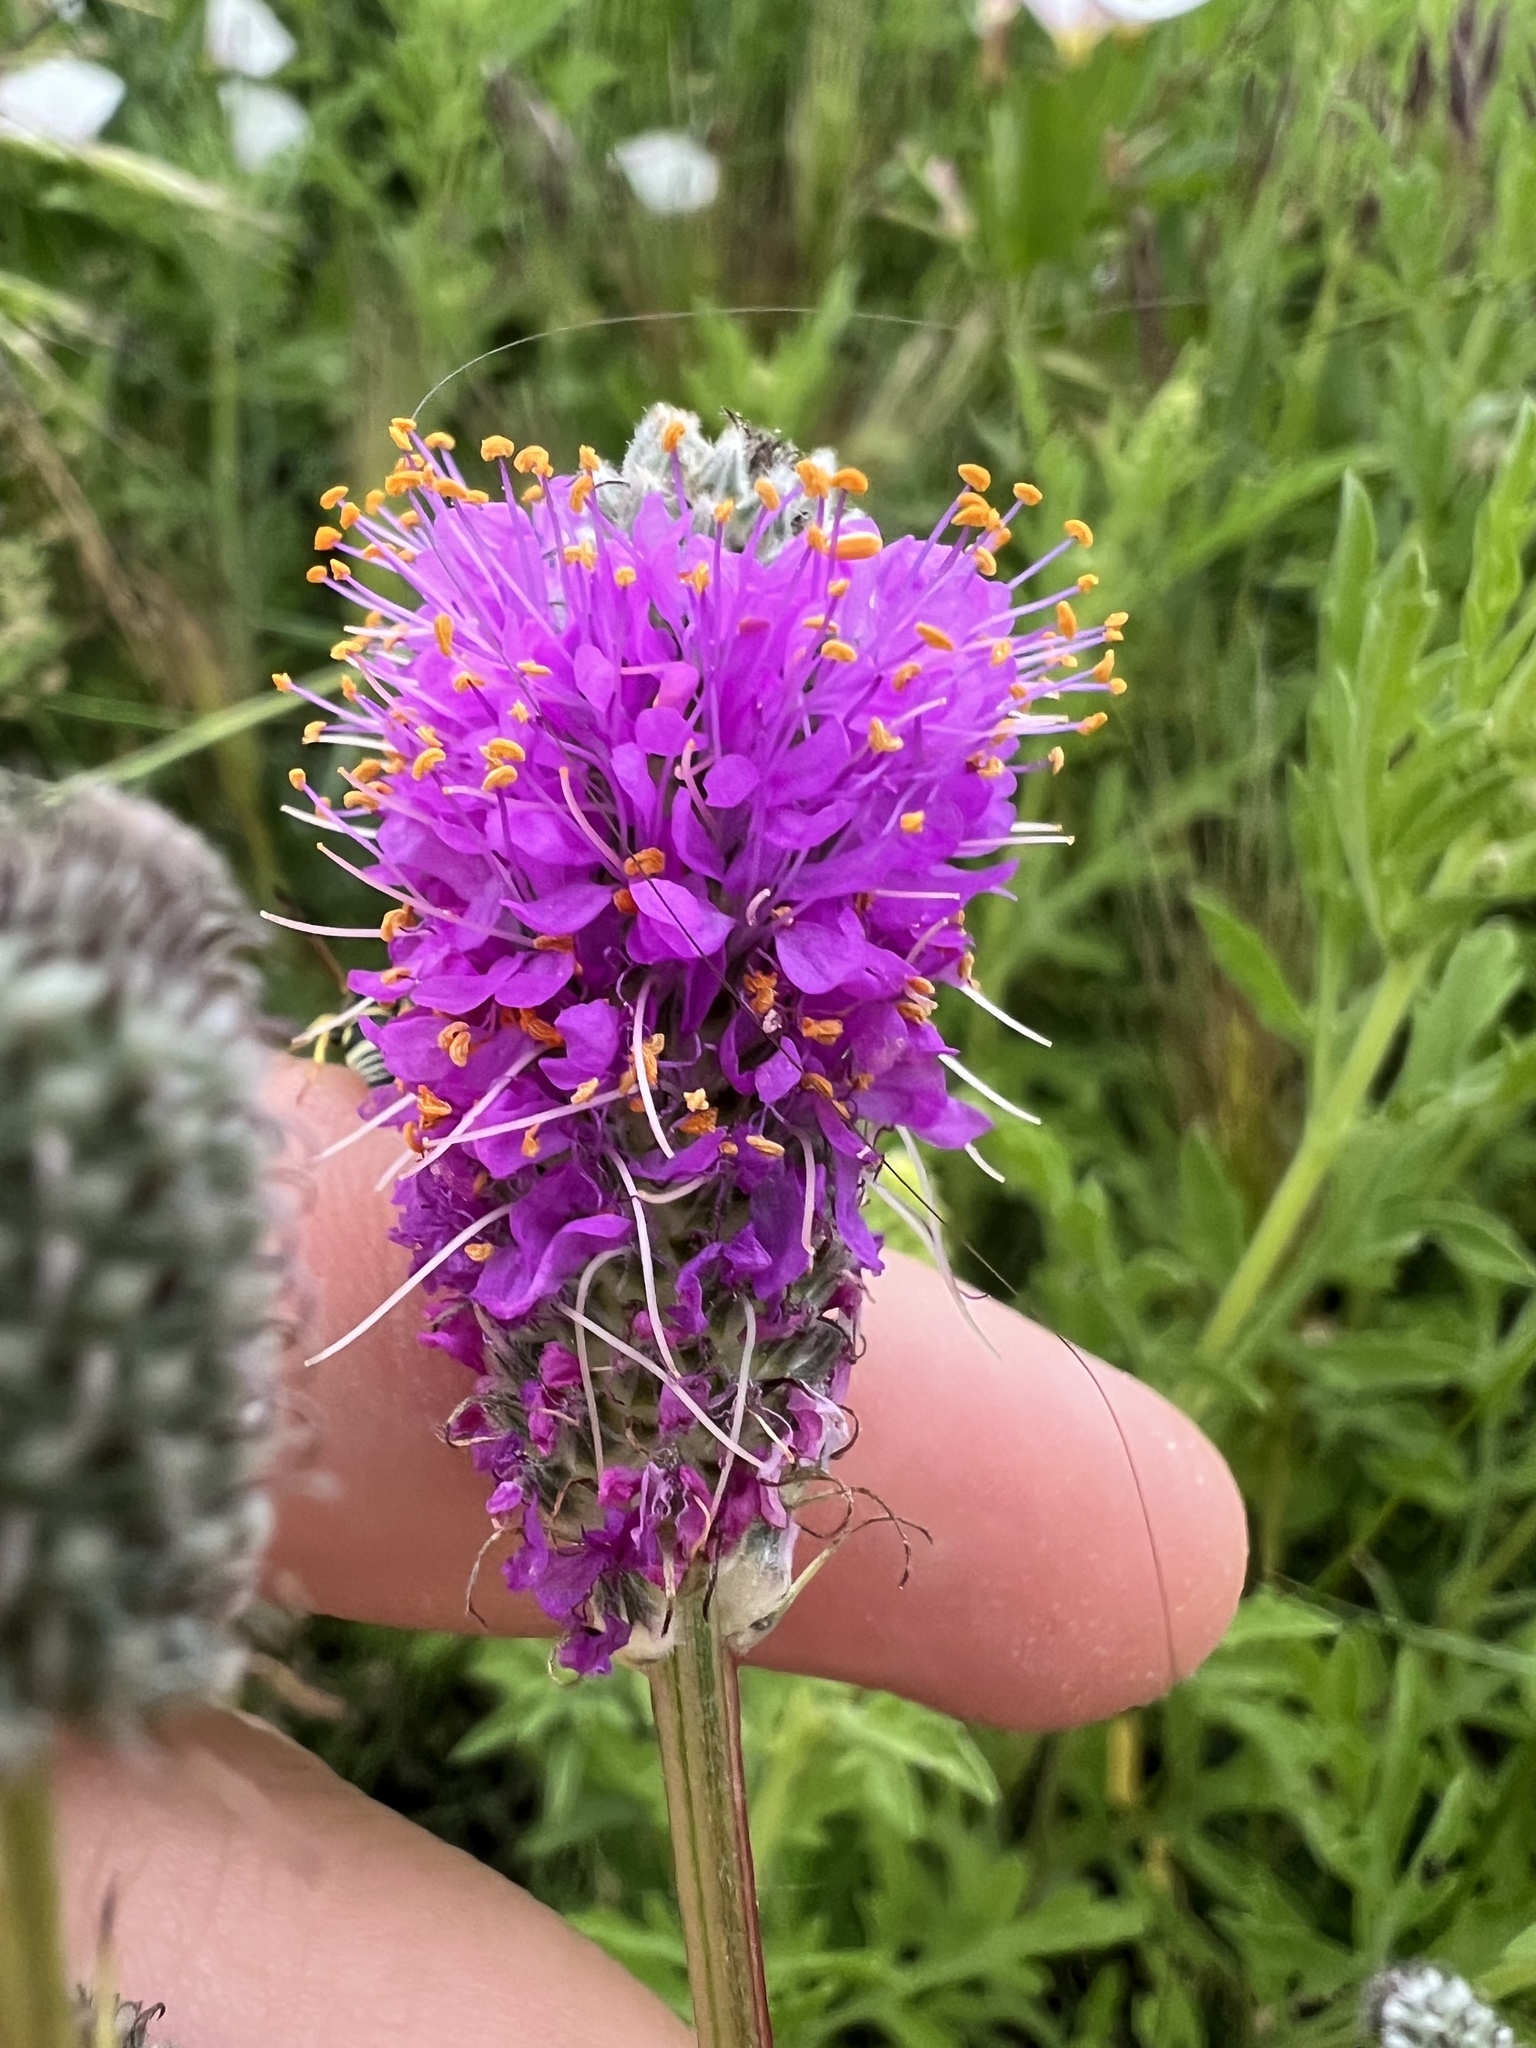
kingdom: Plantae
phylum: Tracheophyta
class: Magnoliopsida
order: Fabales
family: Fabaceae
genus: Dalea
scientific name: Dalea purpurea
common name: Purple prairie-clover
